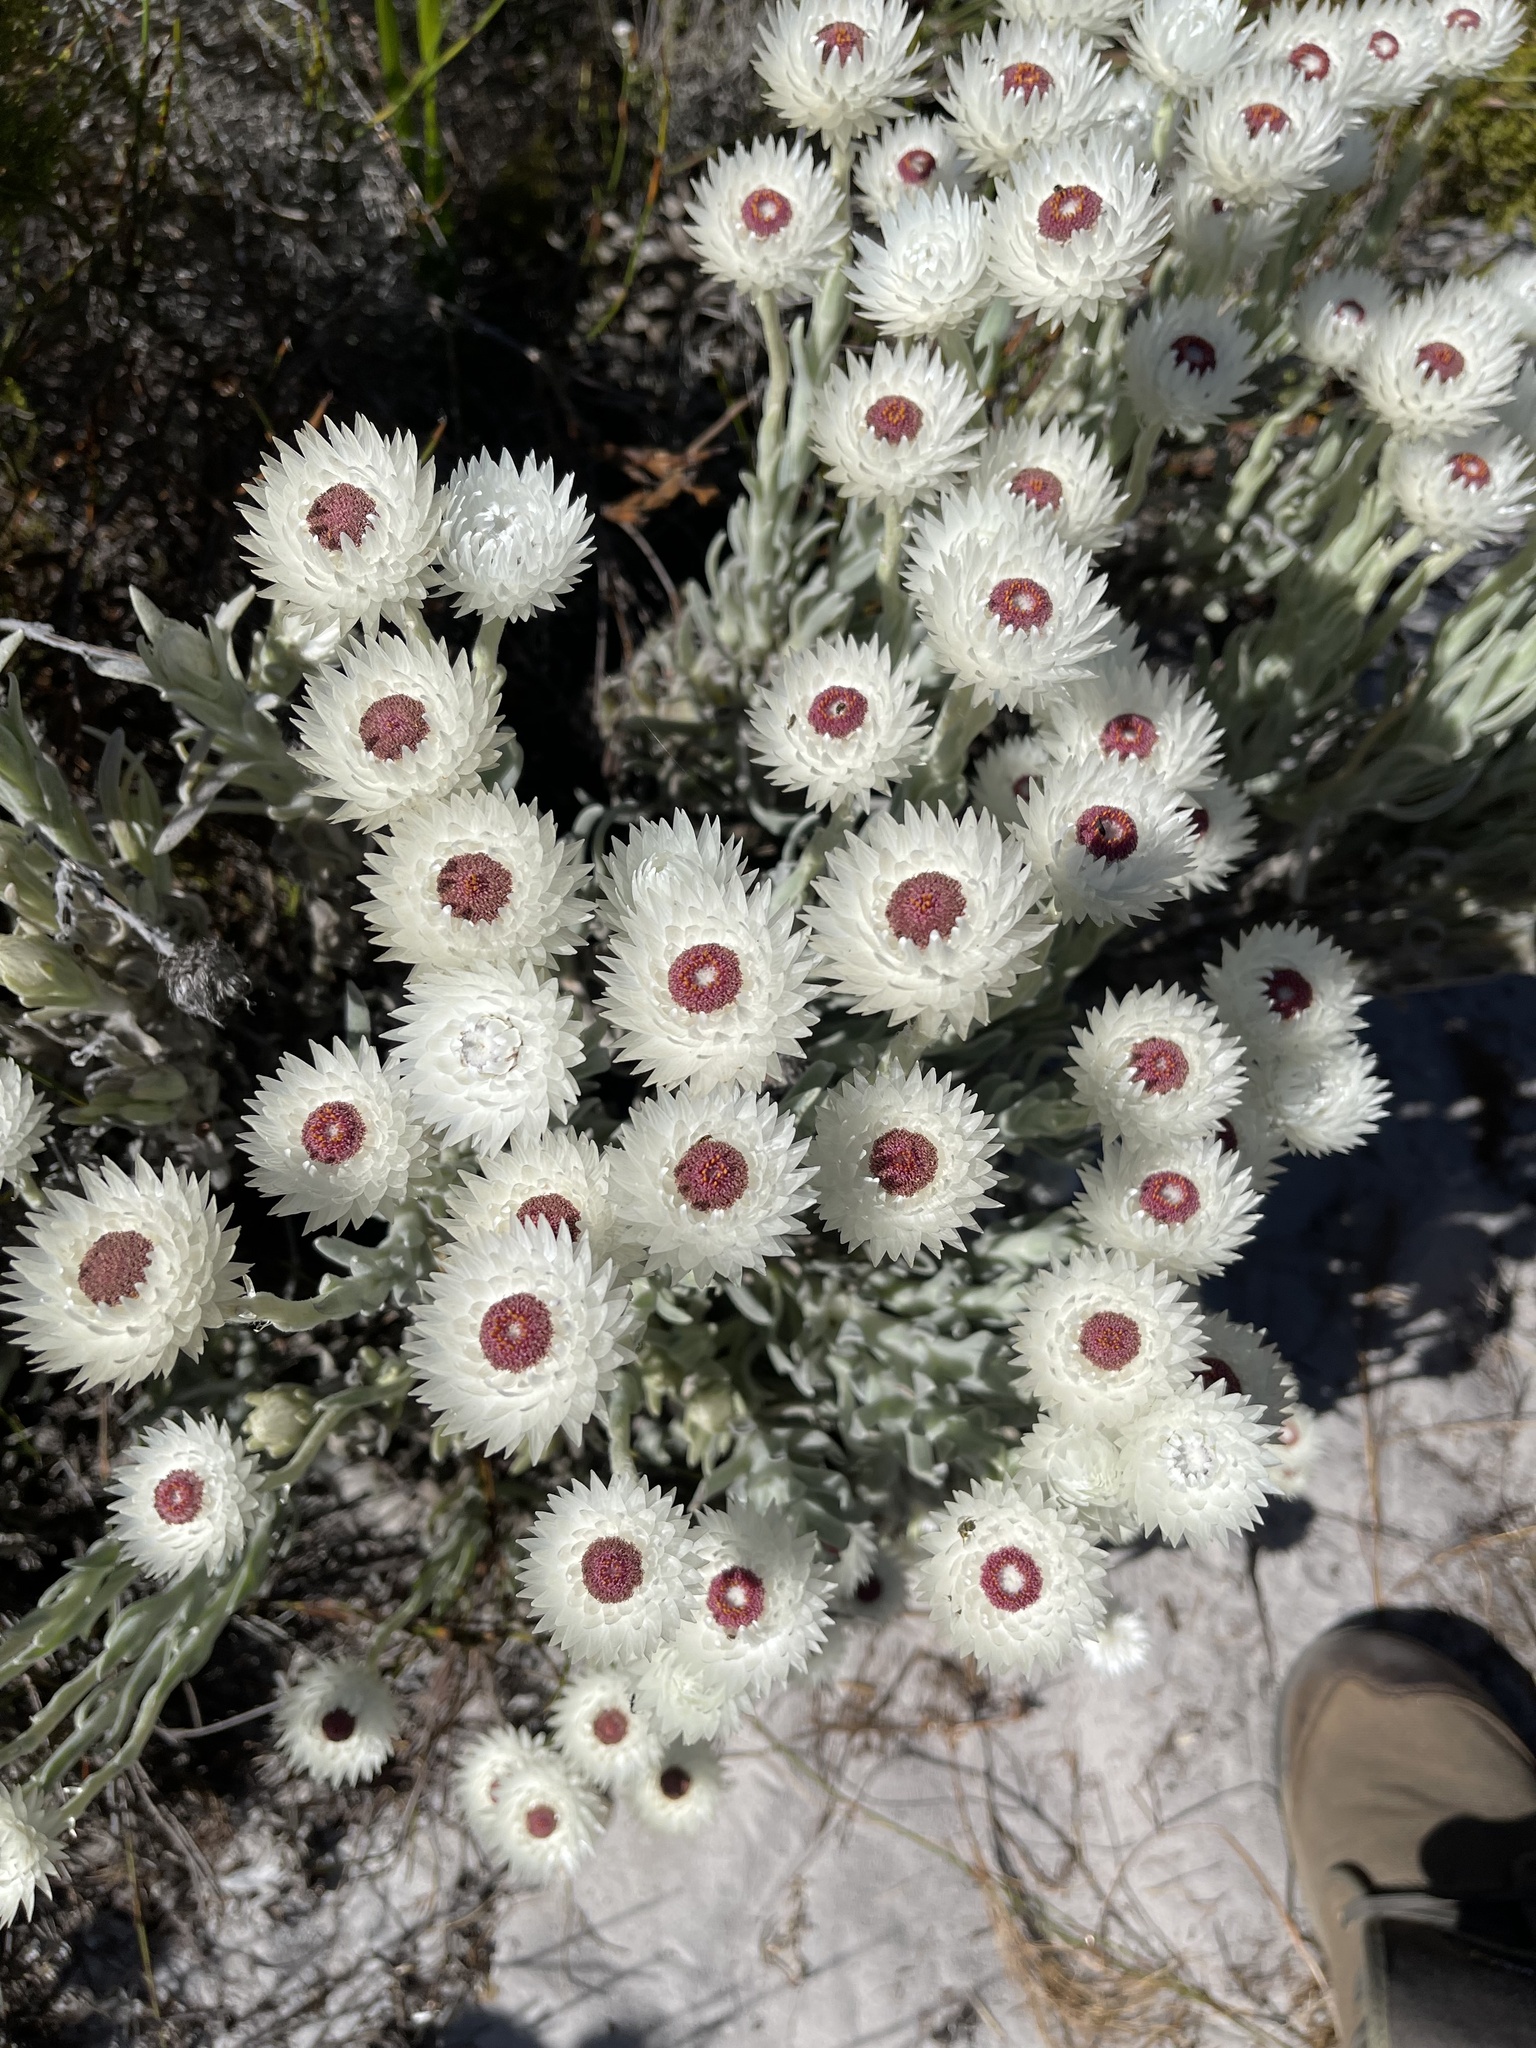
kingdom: Plantae
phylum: Tracheophyta
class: Magnoliopsida
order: Asterales
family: Asteraceae
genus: Syncarpha
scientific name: Syncarpha vestita
